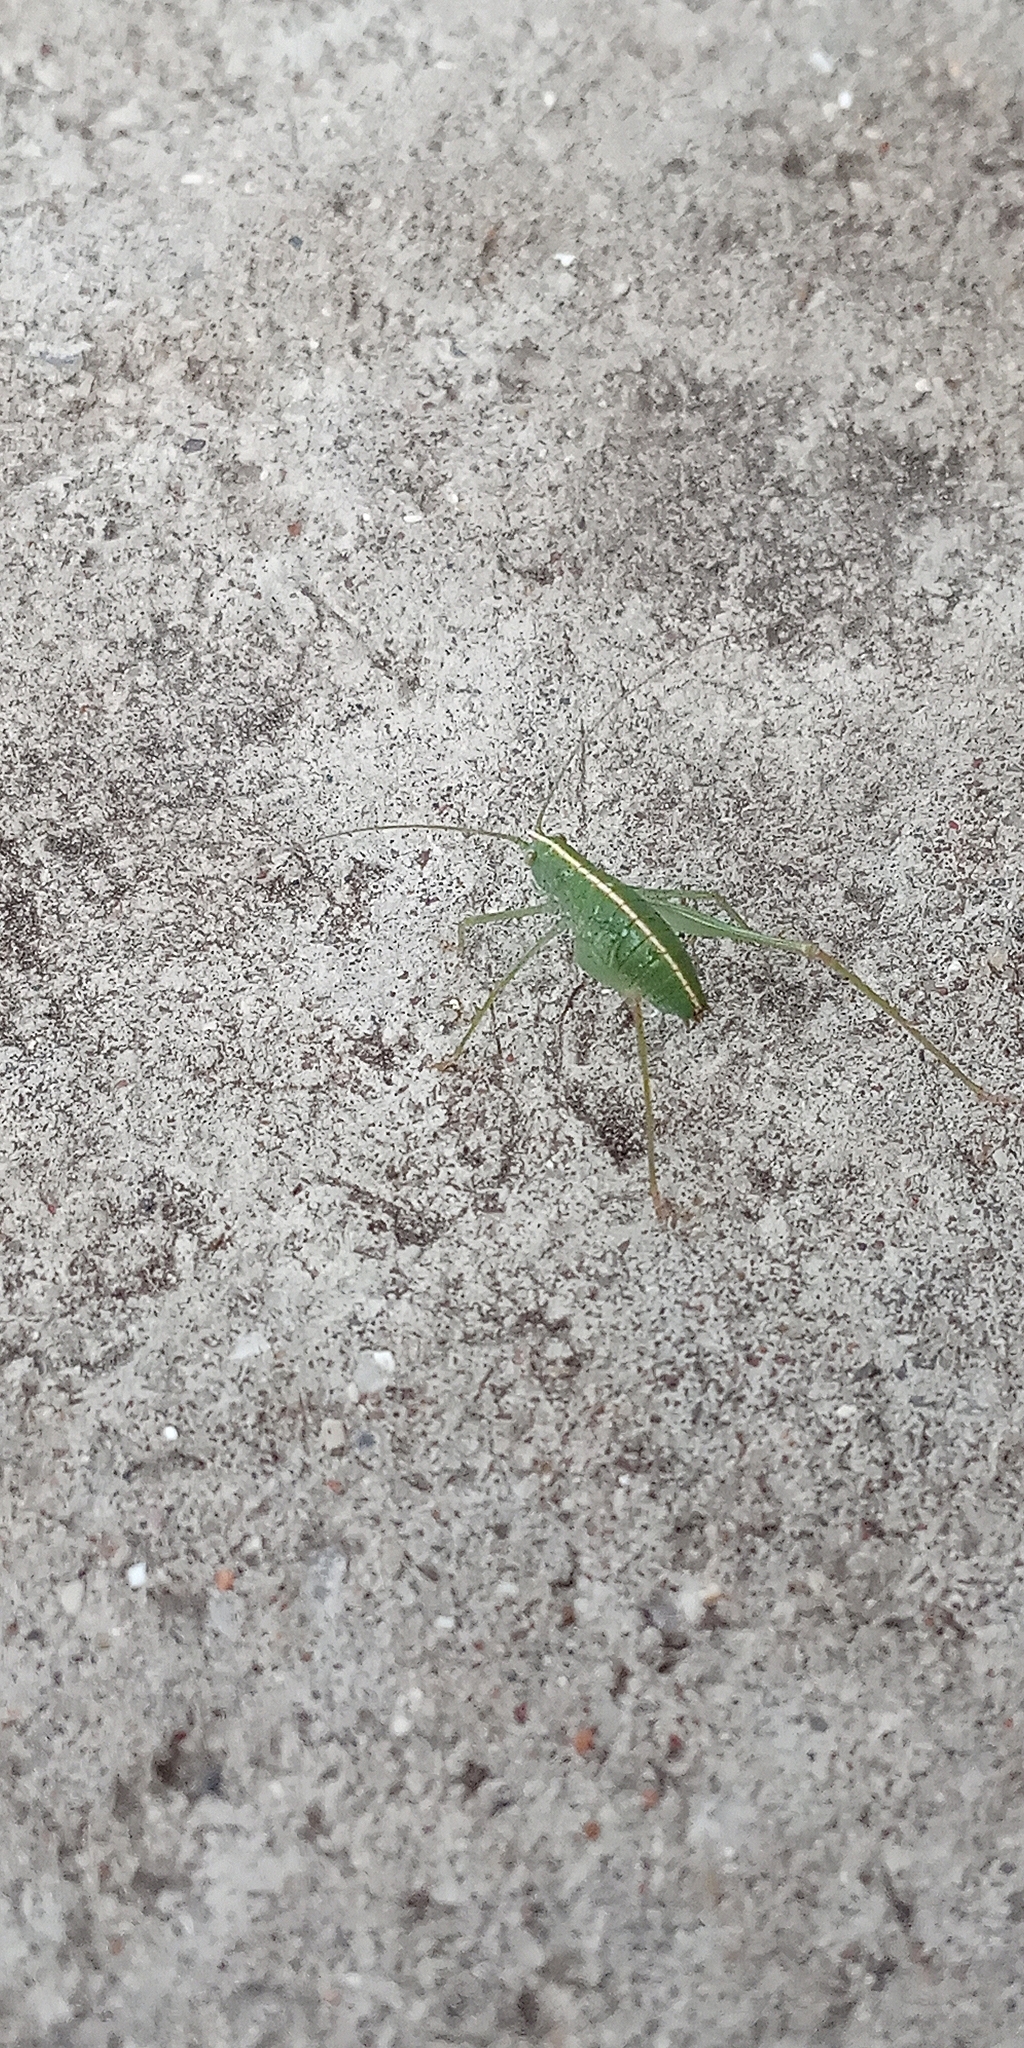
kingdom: Animalia
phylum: Arthropoda
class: Insecta
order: Orthoptera
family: Tettigoniidae
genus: Grammadera
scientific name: Grammadera clara
